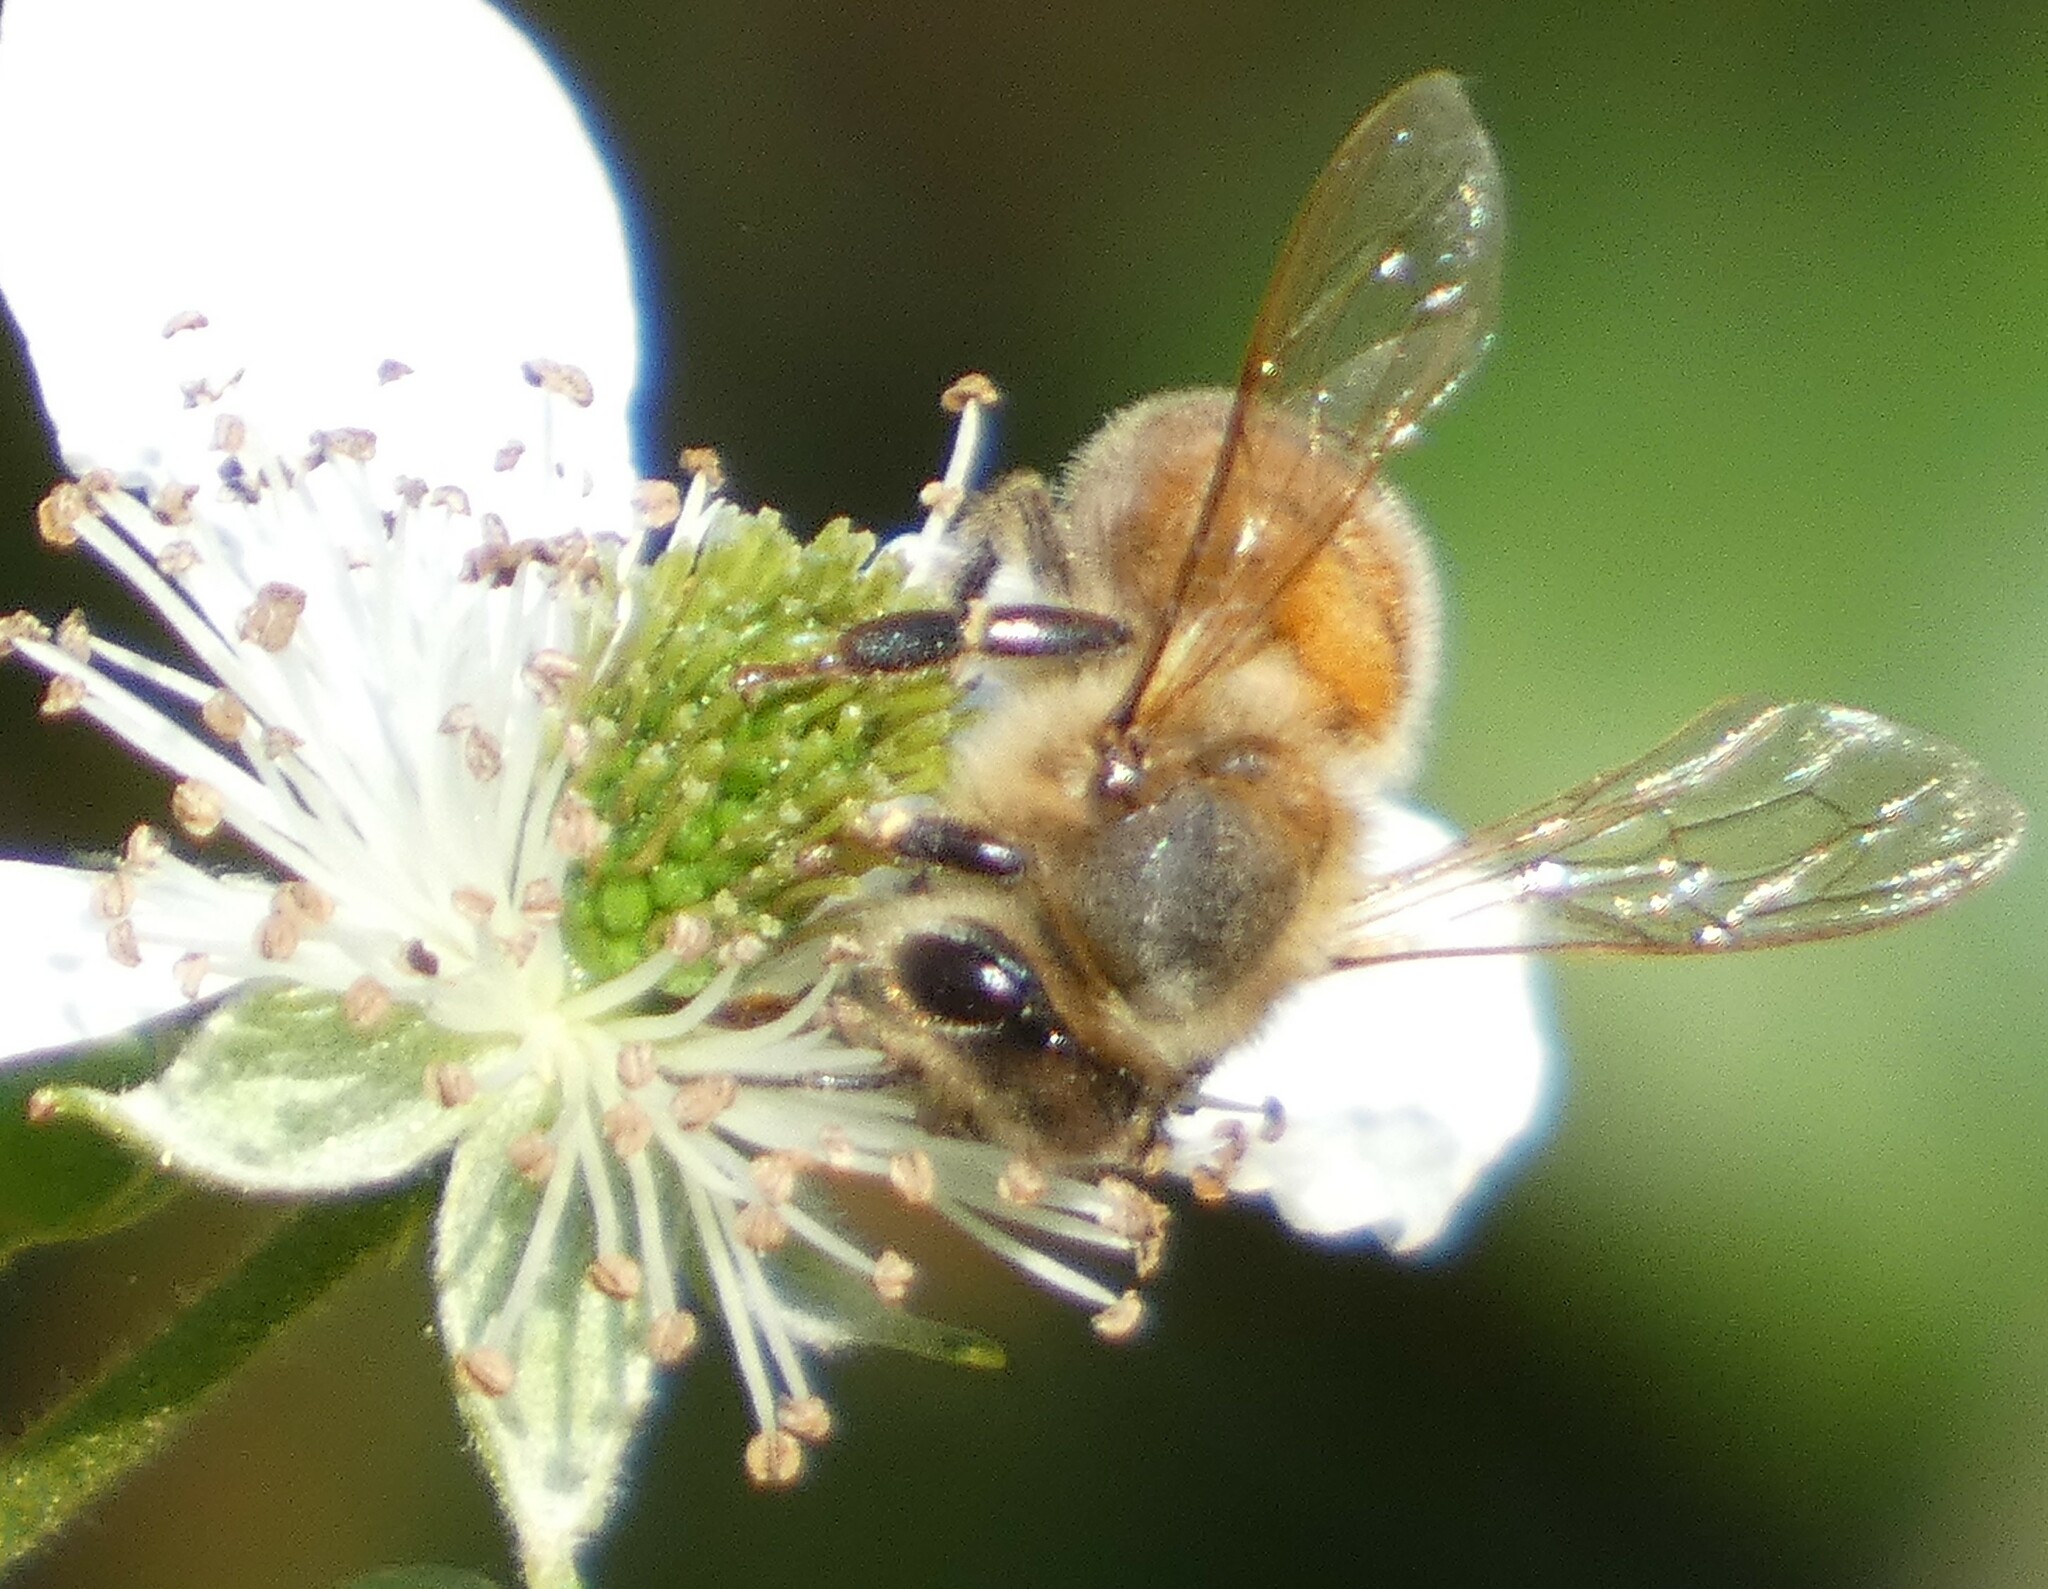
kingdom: Animalia
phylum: Arthropoda
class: Insecta
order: Hymenoptera
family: Apidae
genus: Apis
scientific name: Apis mellifera
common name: Honey bee
